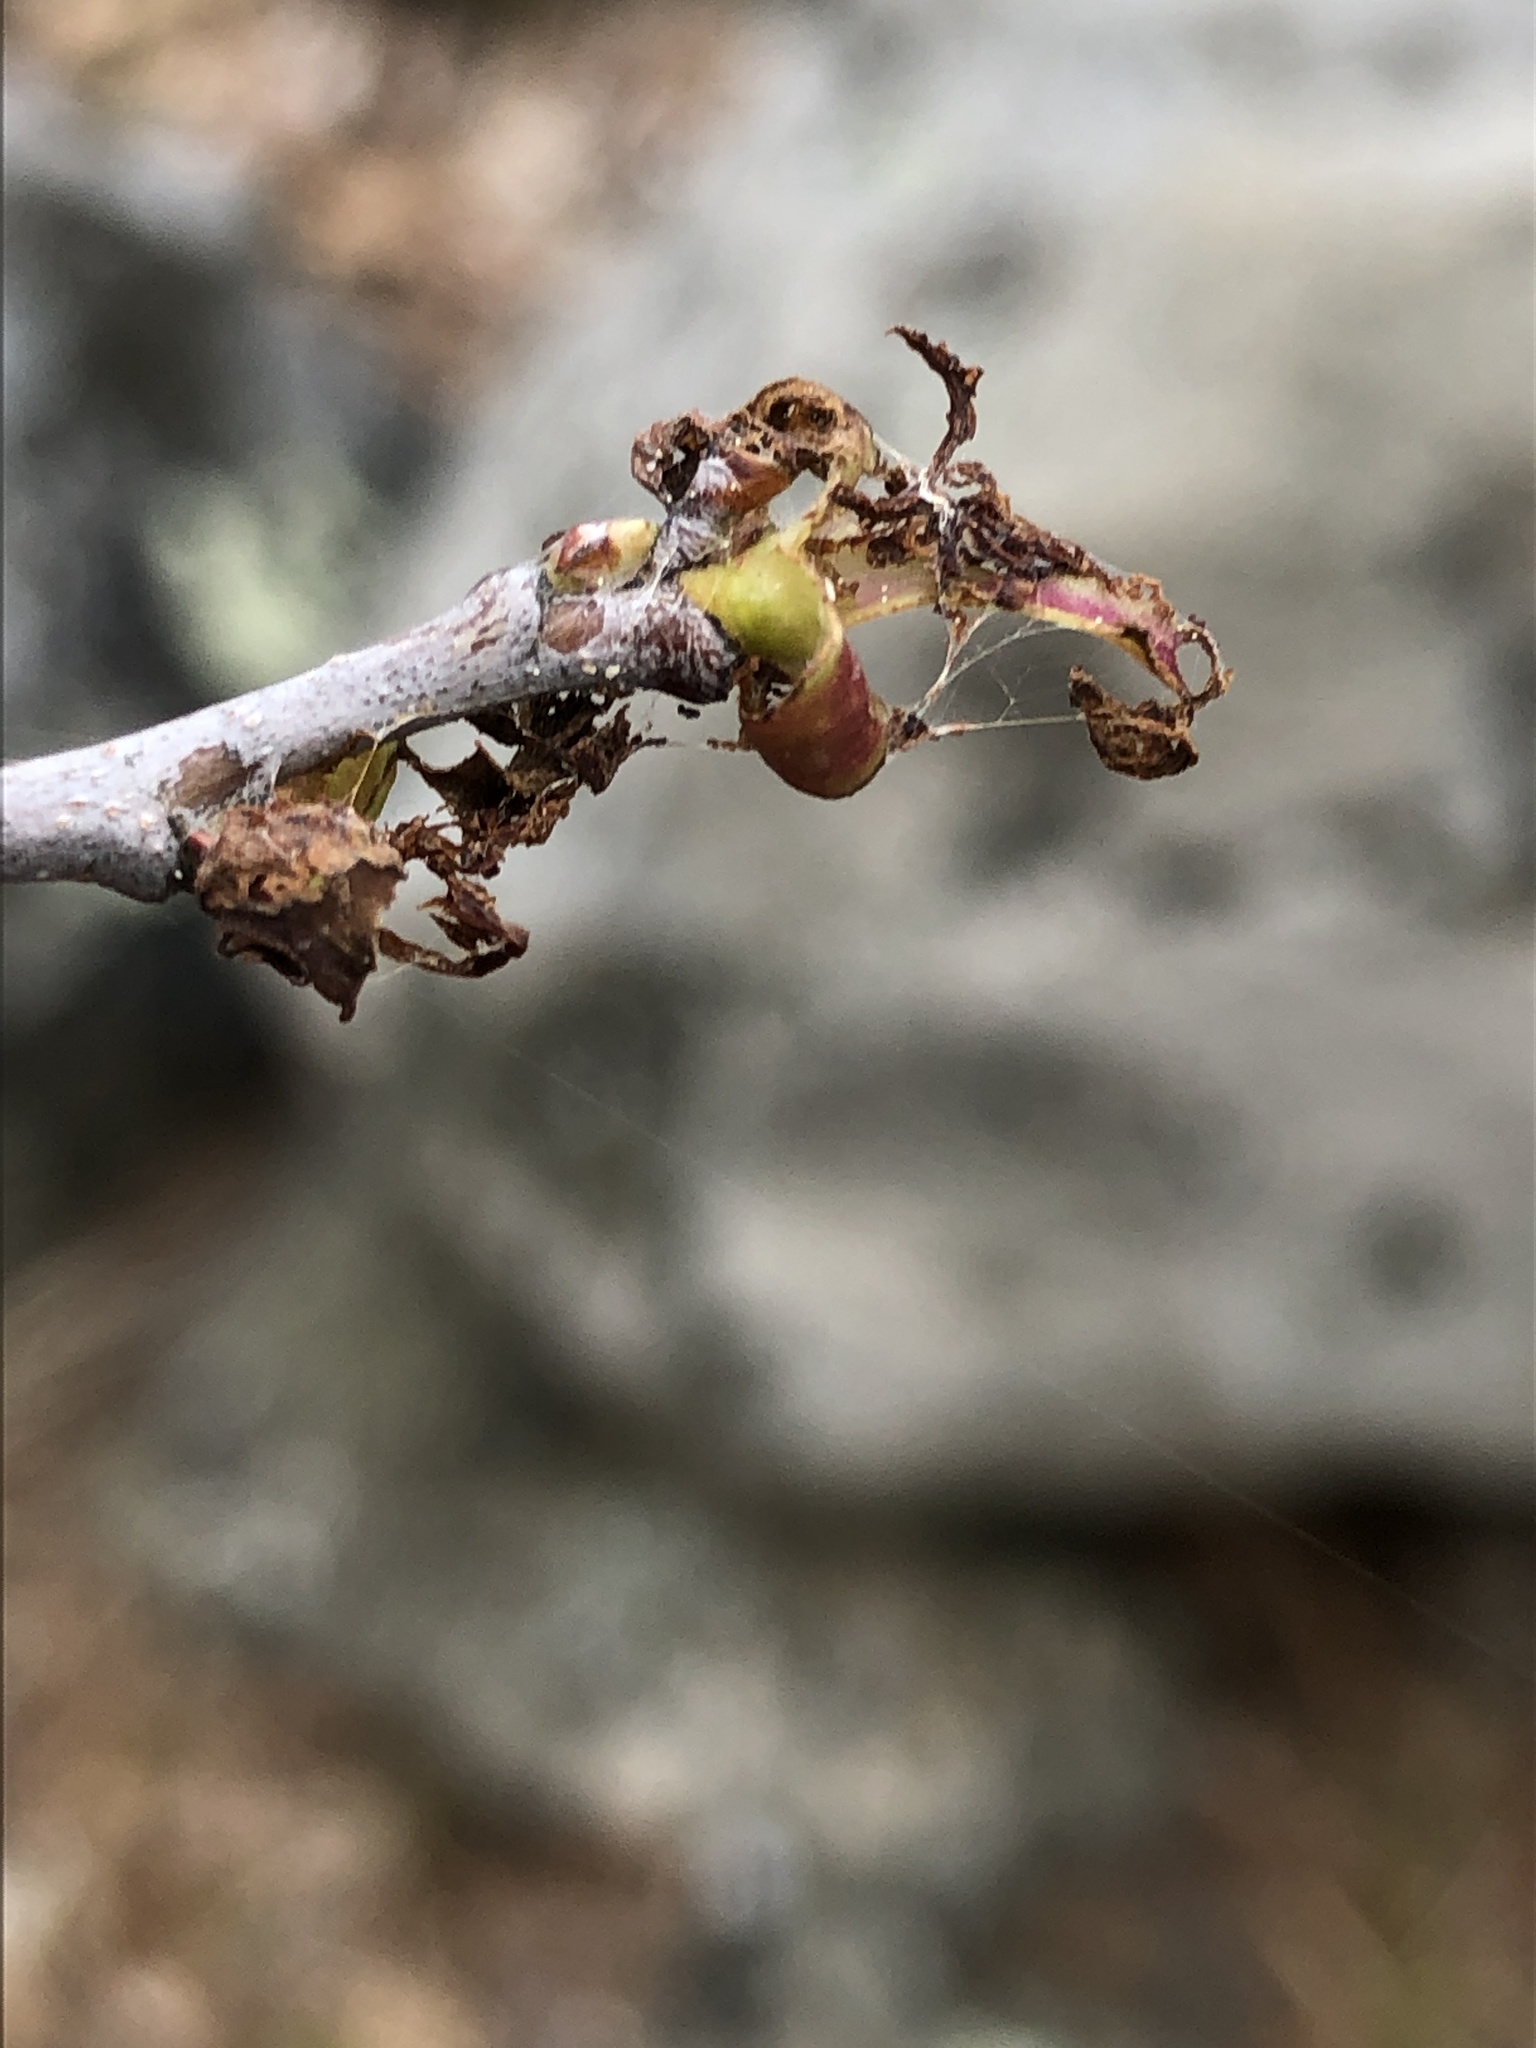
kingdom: Animalia
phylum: Arthropoda
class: Insecta
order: Lepidoptera
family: Lasiocampidae
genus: Malacosoma
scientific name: Malacosoma americana
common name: Eastern tent caterpillar moth
